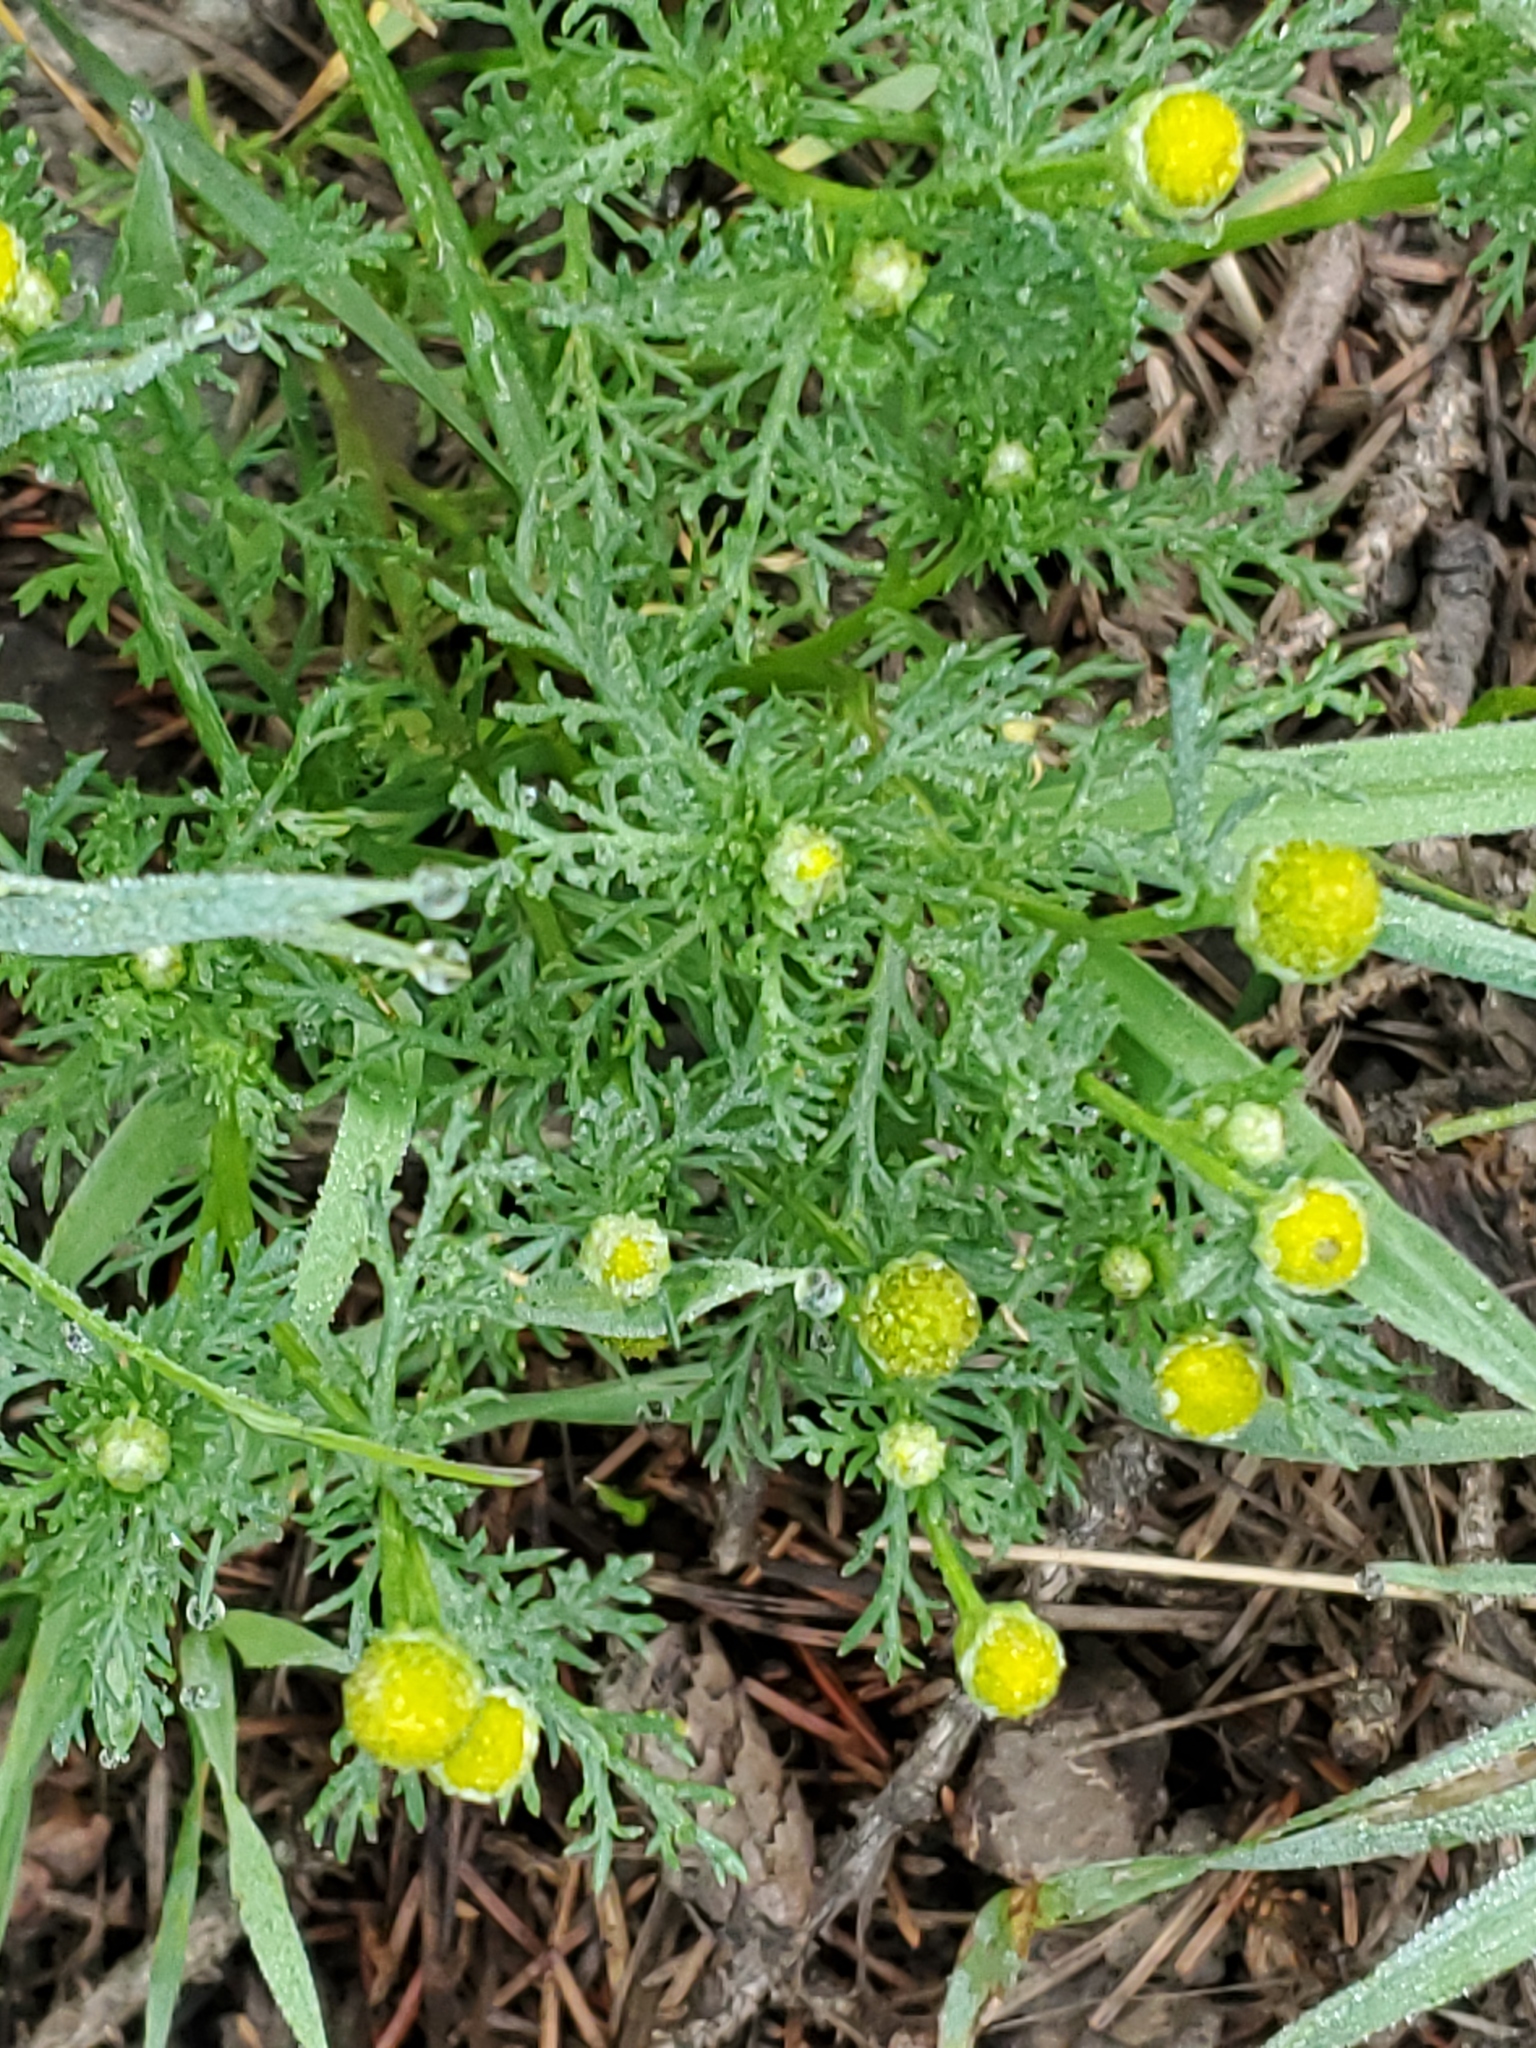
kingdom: Plantae
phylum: Tracheophyta
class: Magnoliopsida
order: Asterales
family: Asteraceae
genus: Matricaria
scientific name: Matricaria discoidea
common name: Disc mayweed
